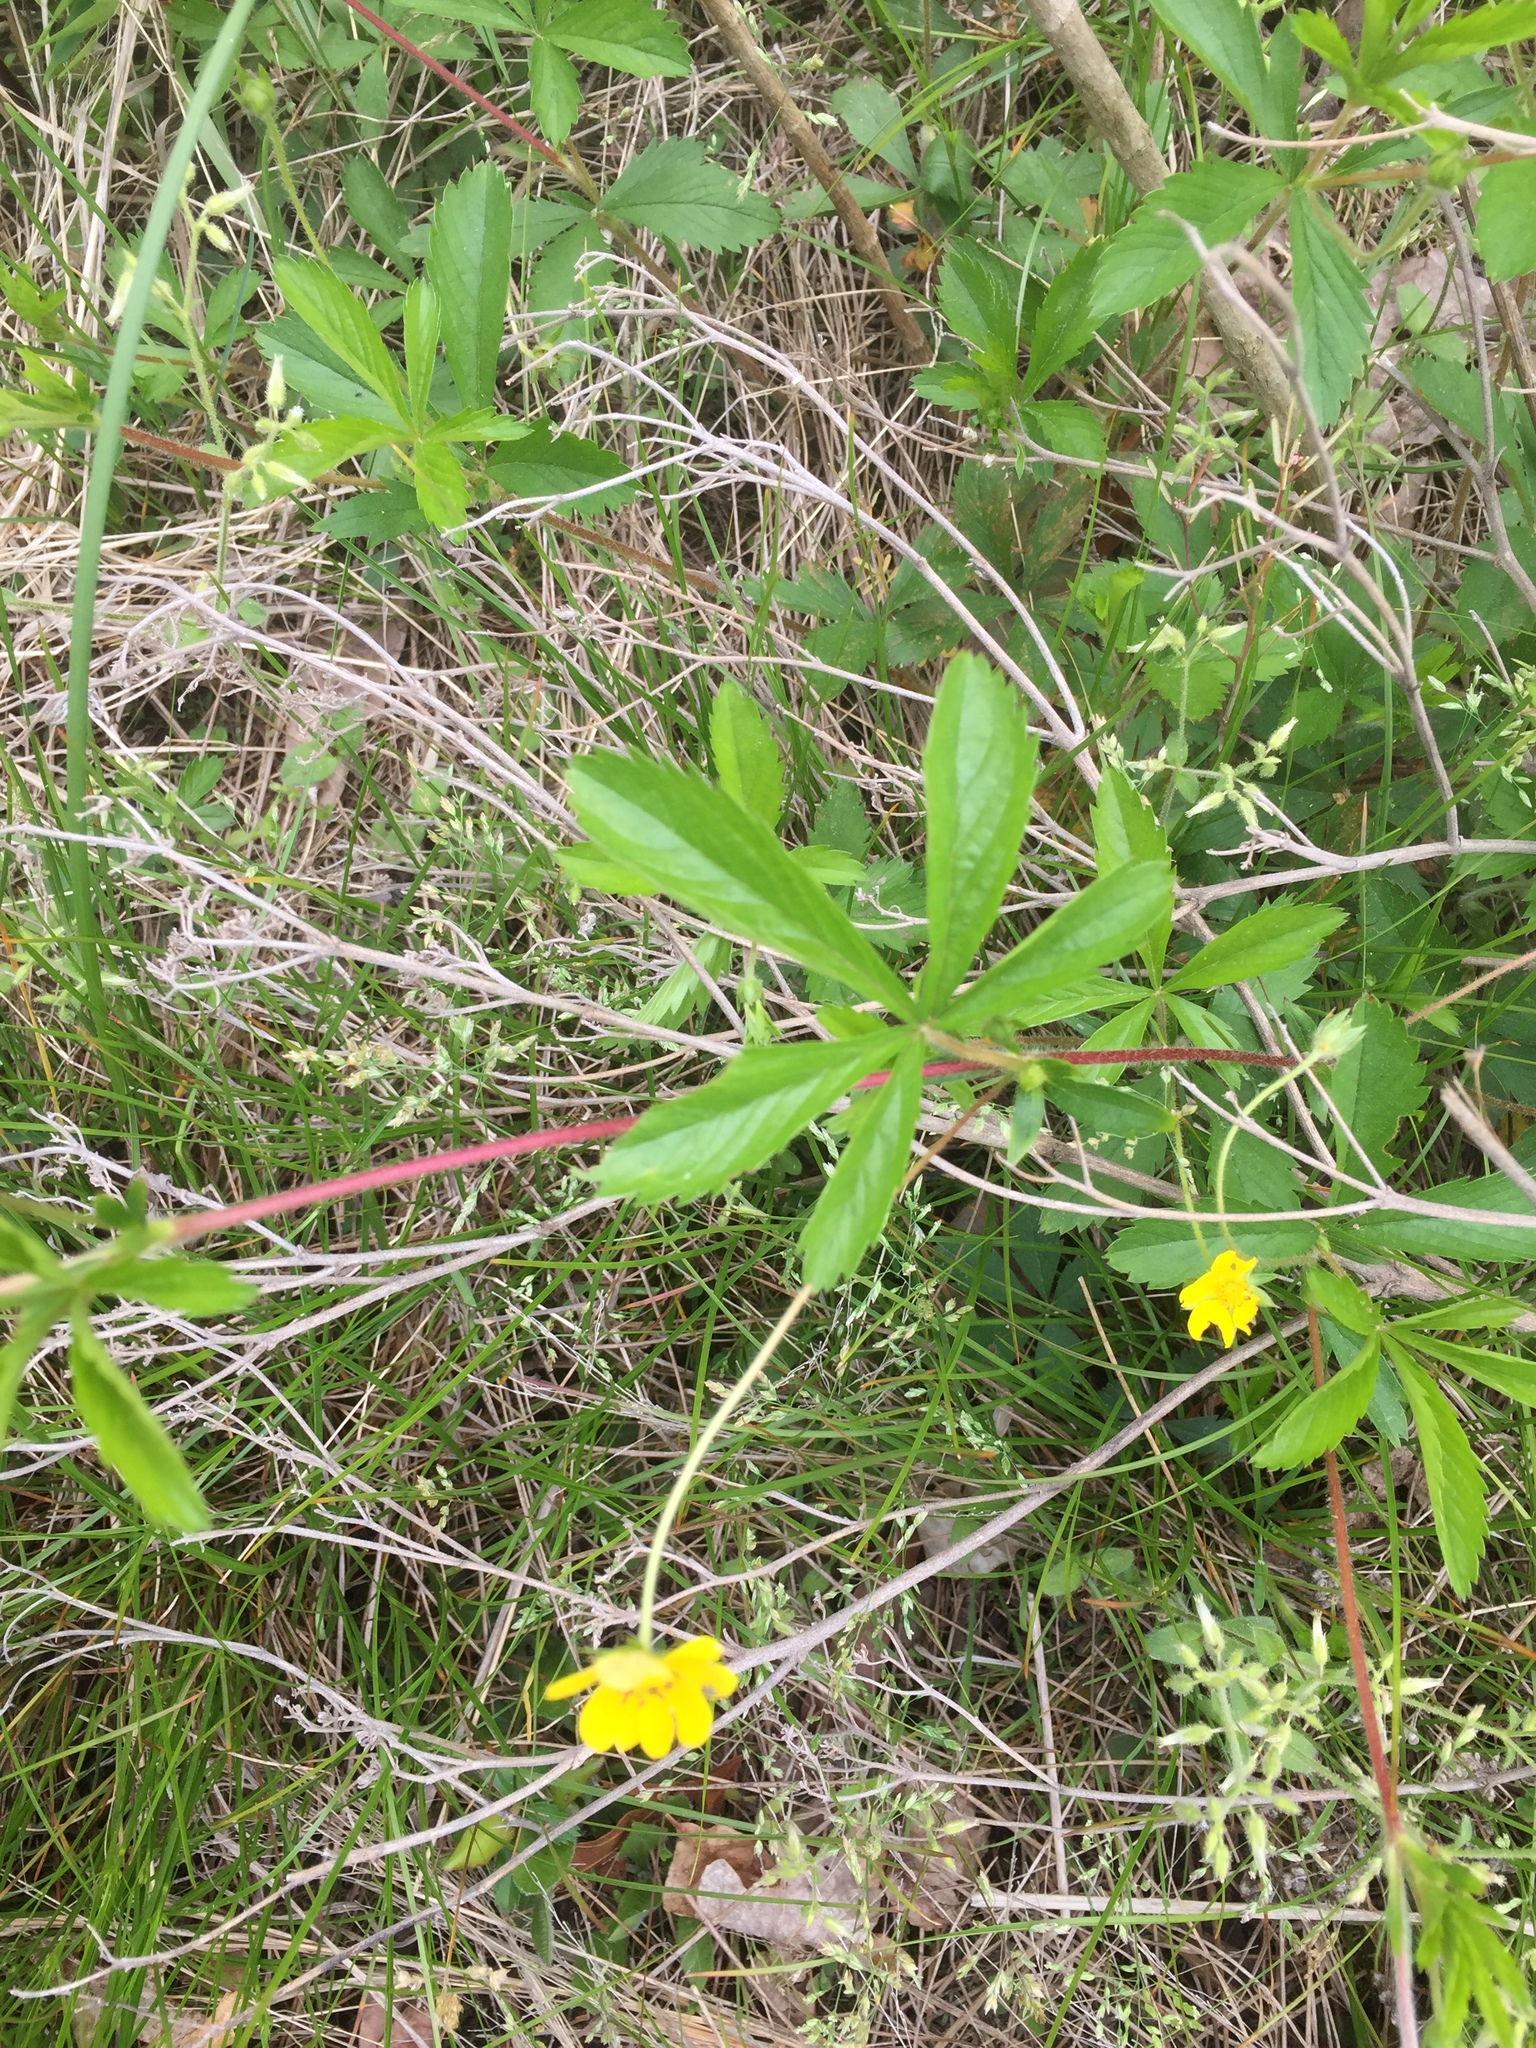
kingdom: Plantae
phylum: Tracheophyta
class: Magnoliopsida
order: Rosales
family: Rosaceae
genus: Potentilla
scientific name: Potentilla simplex
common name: Old field cinquefoil
